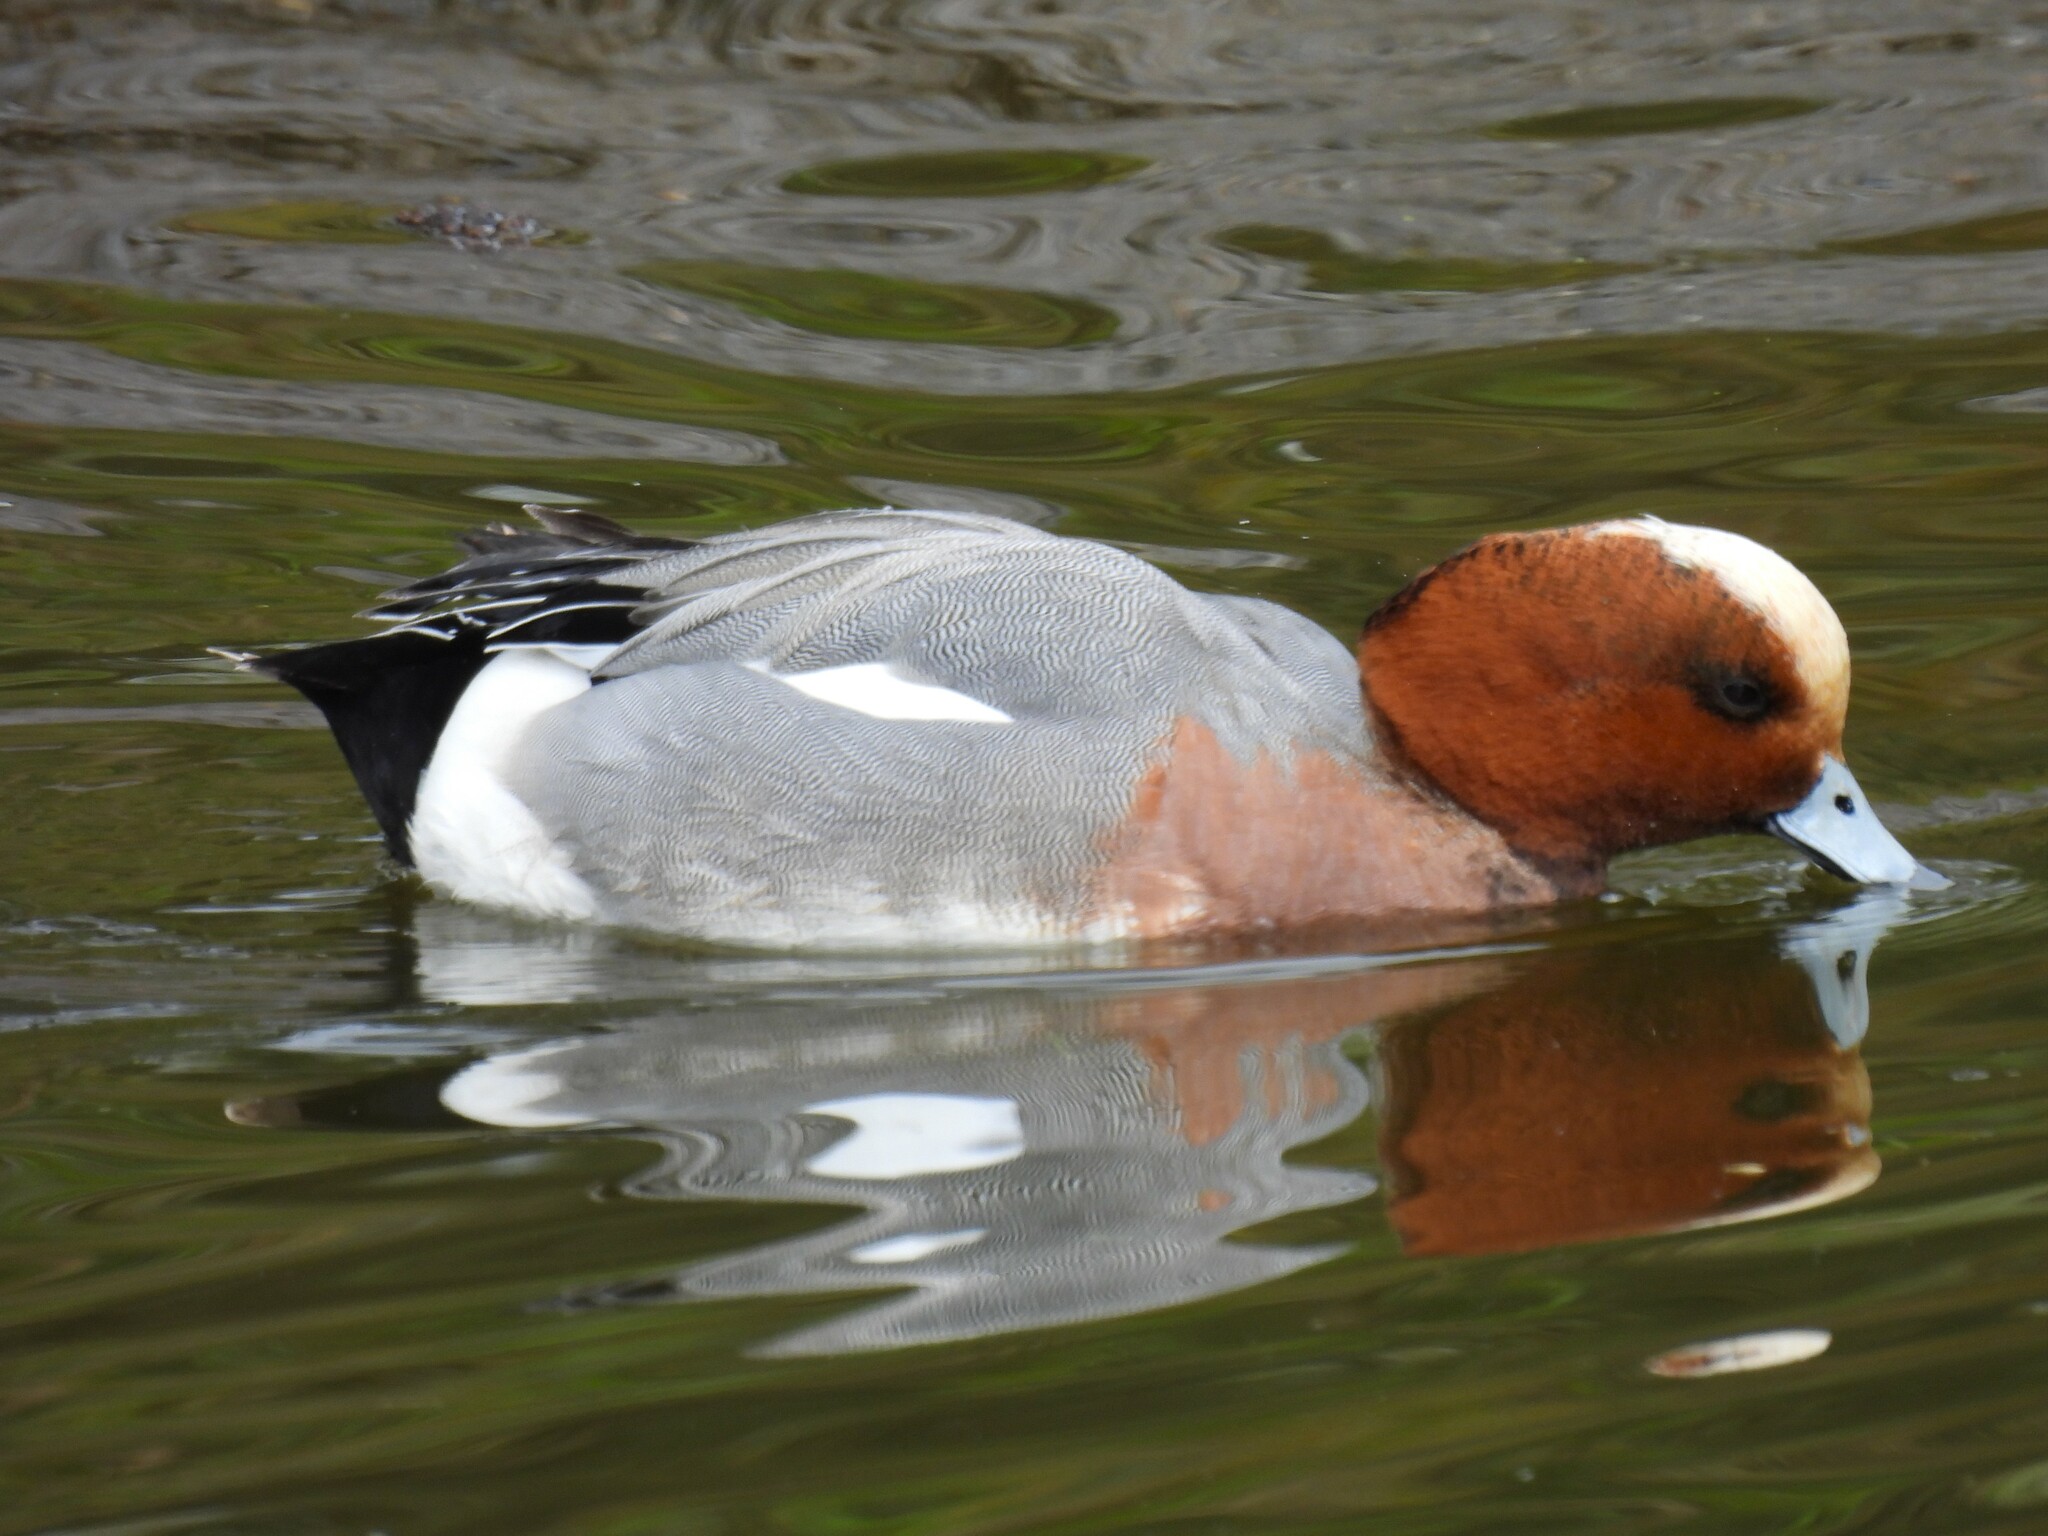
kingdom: Animalia
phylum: Chordata
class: Aves
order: Anseriformes
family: Anatidae
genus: Mareca
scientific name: Mareca penelope
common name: Eurasian wigeon
